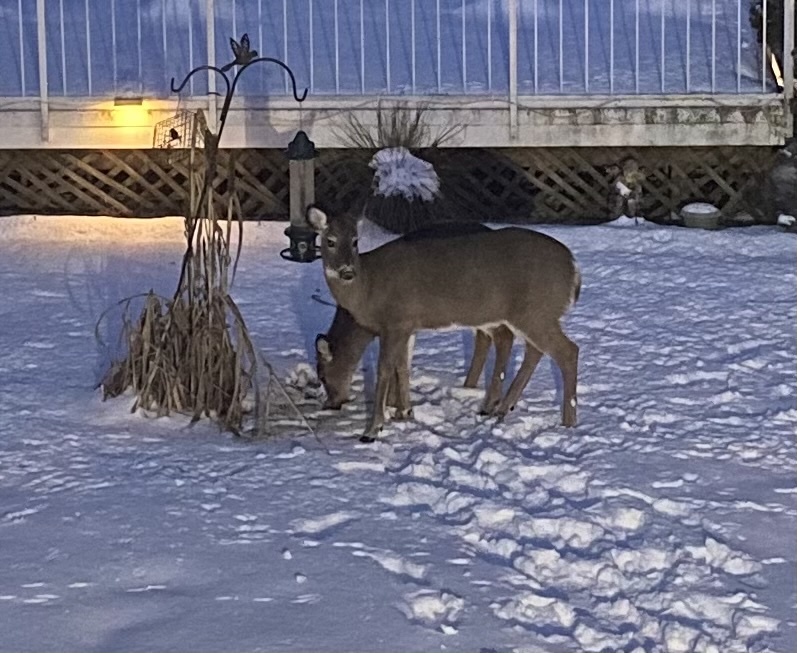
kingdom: Animalia
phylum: Chordata
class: Mammalia
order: Artiodactyla
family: Cervidae
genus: Odocoileus
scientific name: Odocoileus virginianus
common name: White-tailed deer
